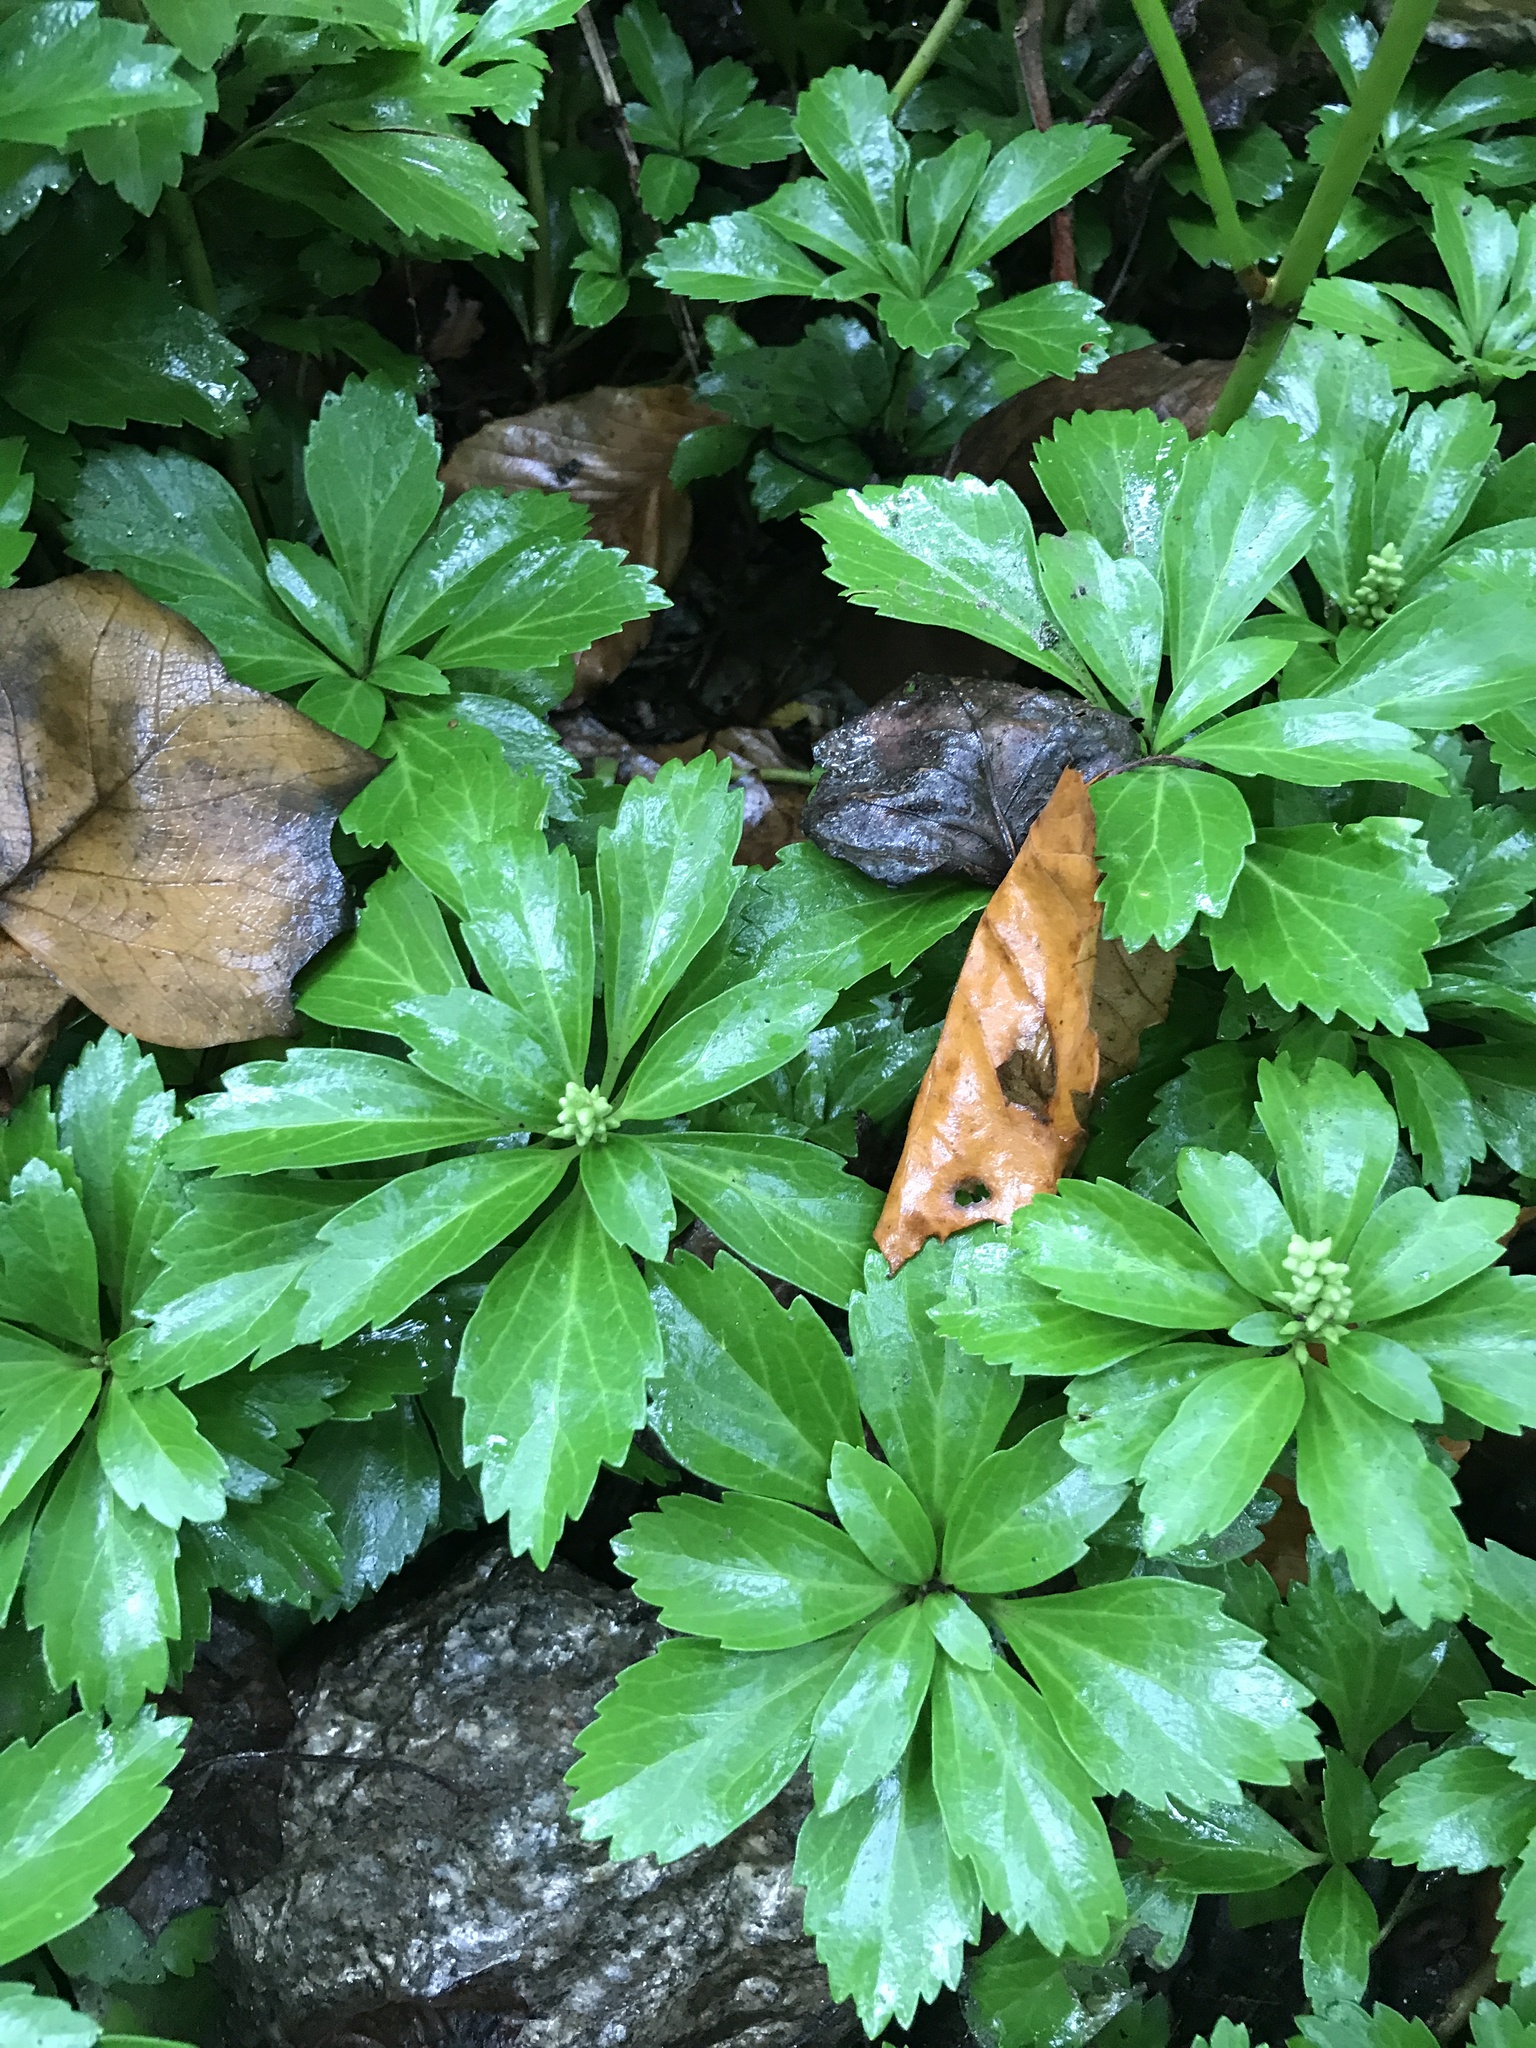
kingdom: Plantae
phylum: Tracheophyta
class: Magnoliopsida
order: Buxales
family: Buxaceae
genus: Pachysandra
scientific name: Pachysandra terminalis
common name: Japanese pachysandra
